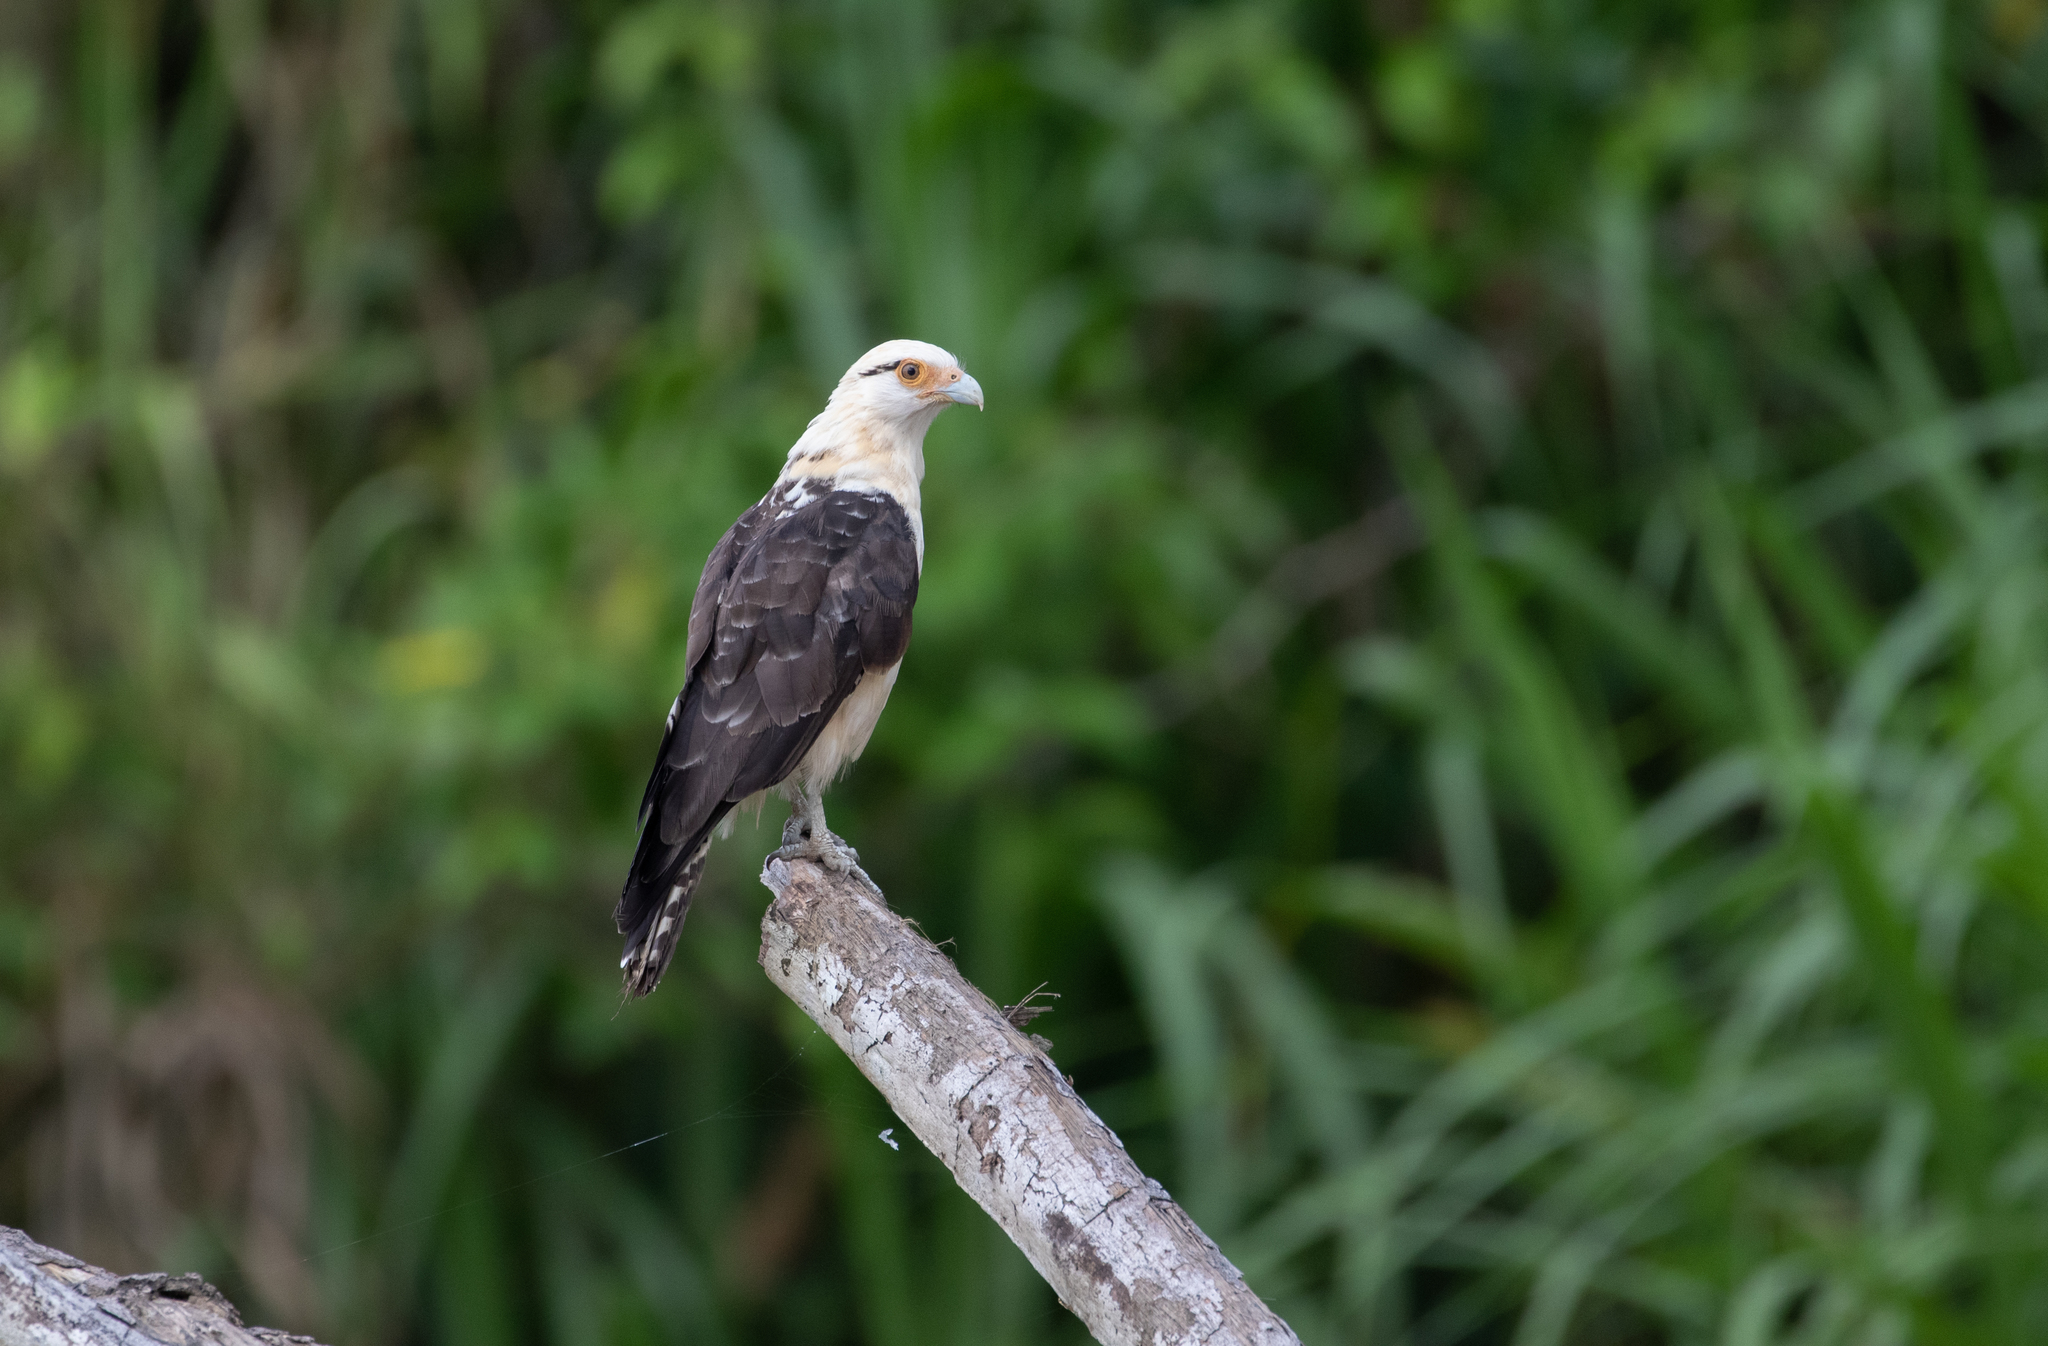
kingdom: Animalia
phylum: Chordata
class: Aves
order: Falconiformes
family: Falconidae
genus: Daptrius
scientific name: Daptrius
